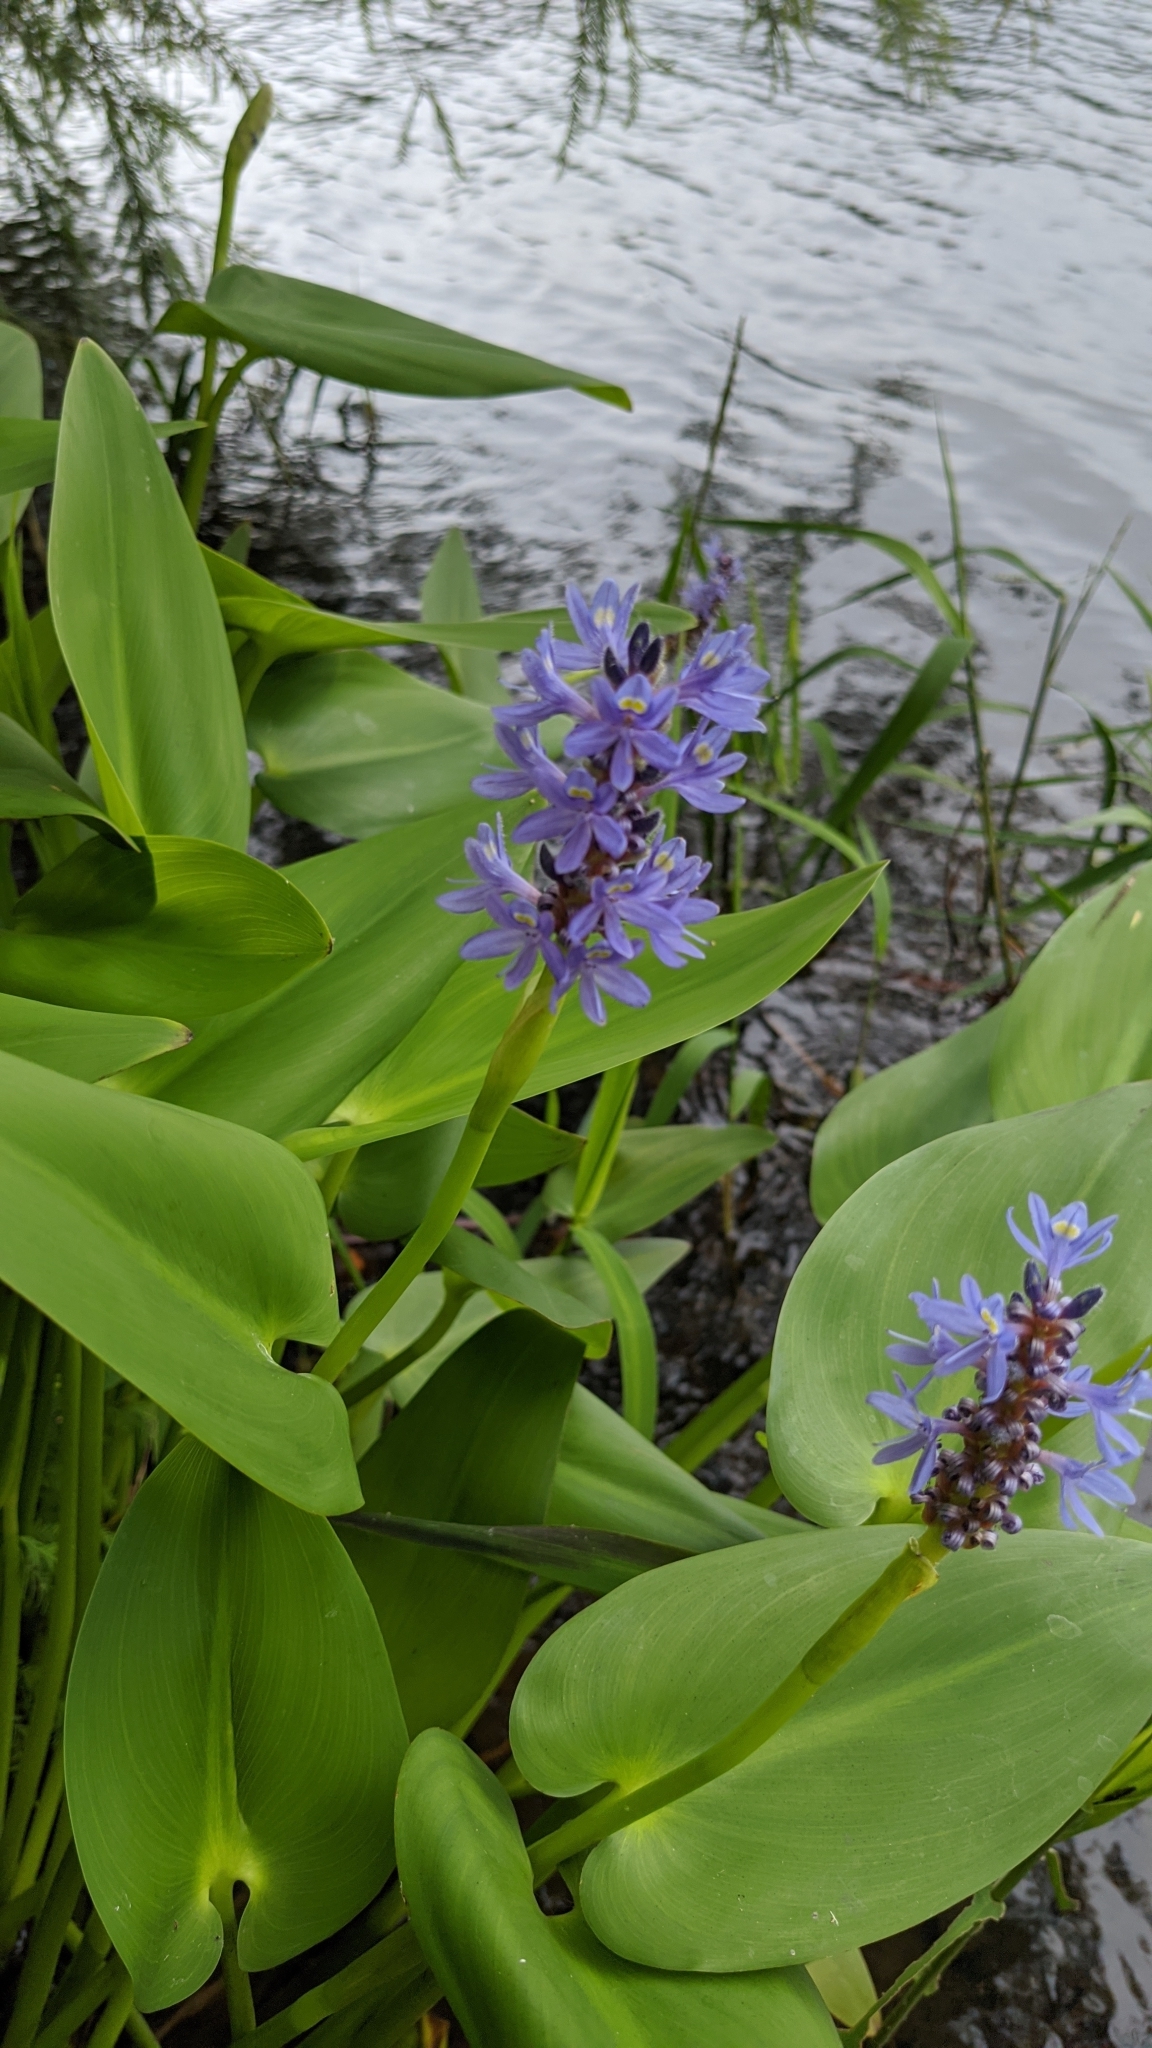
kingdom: Plantae
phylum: Tracheophyta
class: Liliopsida
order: Commelinales
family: Pontederiaceae
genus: Pontederia
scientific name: Pontederia cordata
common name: Pickerelweed
